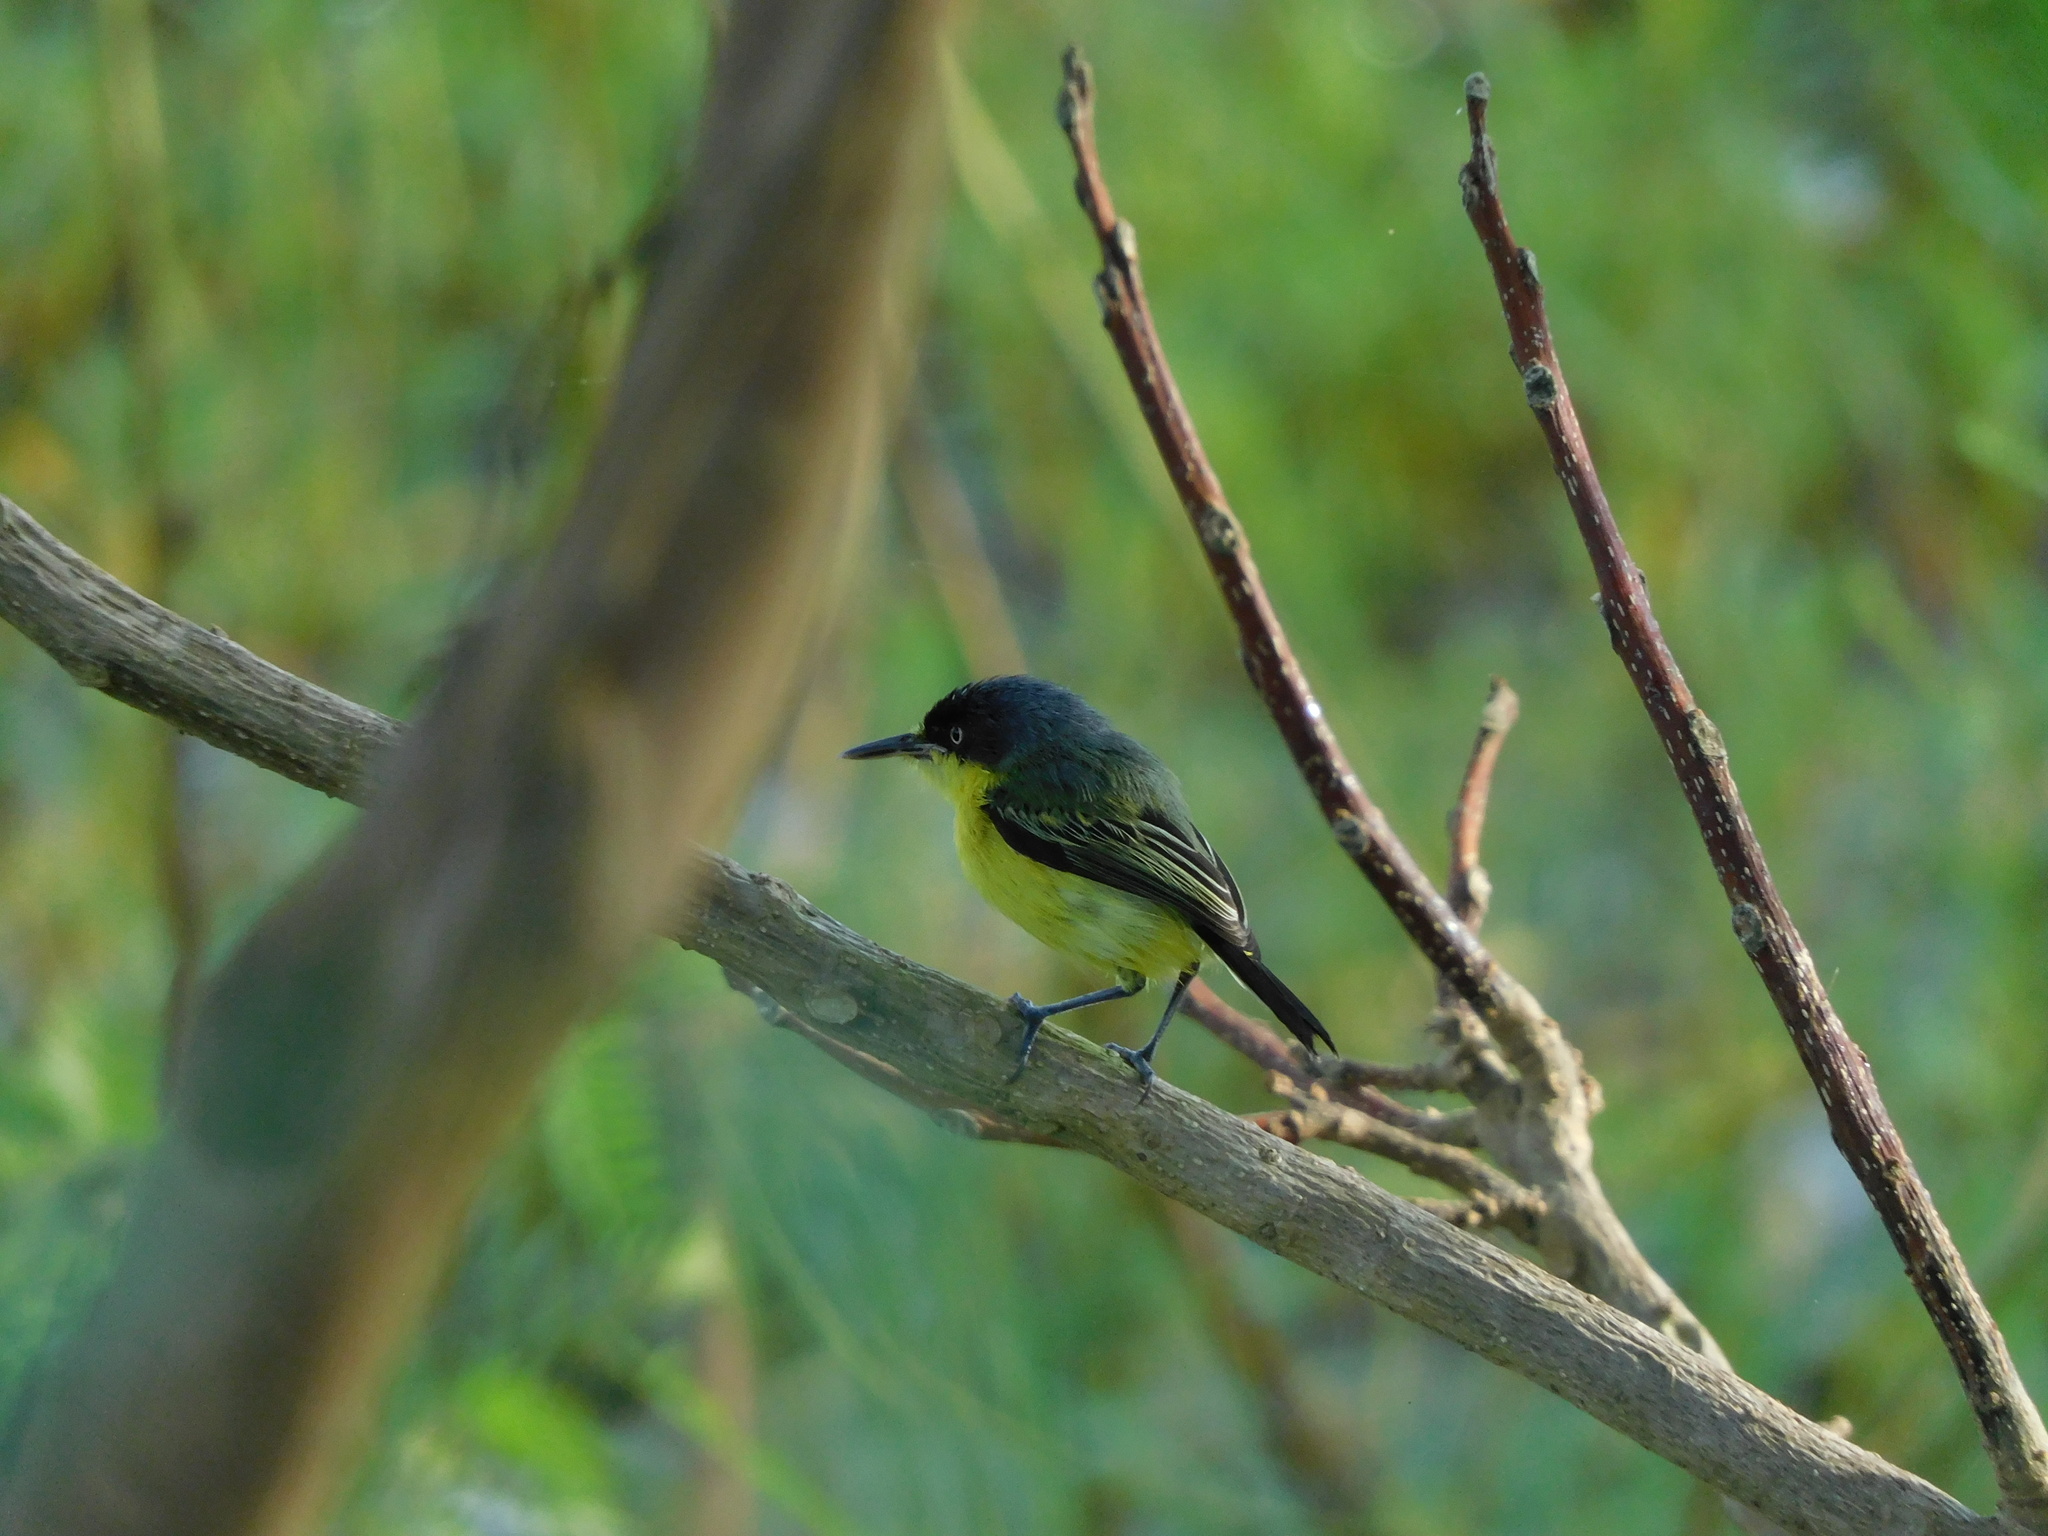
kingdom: Animalia
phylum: Chordata
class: Aves
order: Passeriformes
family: Tyrannidae
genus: Todirostrum
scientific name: Todirostrum cinereum
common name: Common tody-flycatcher
